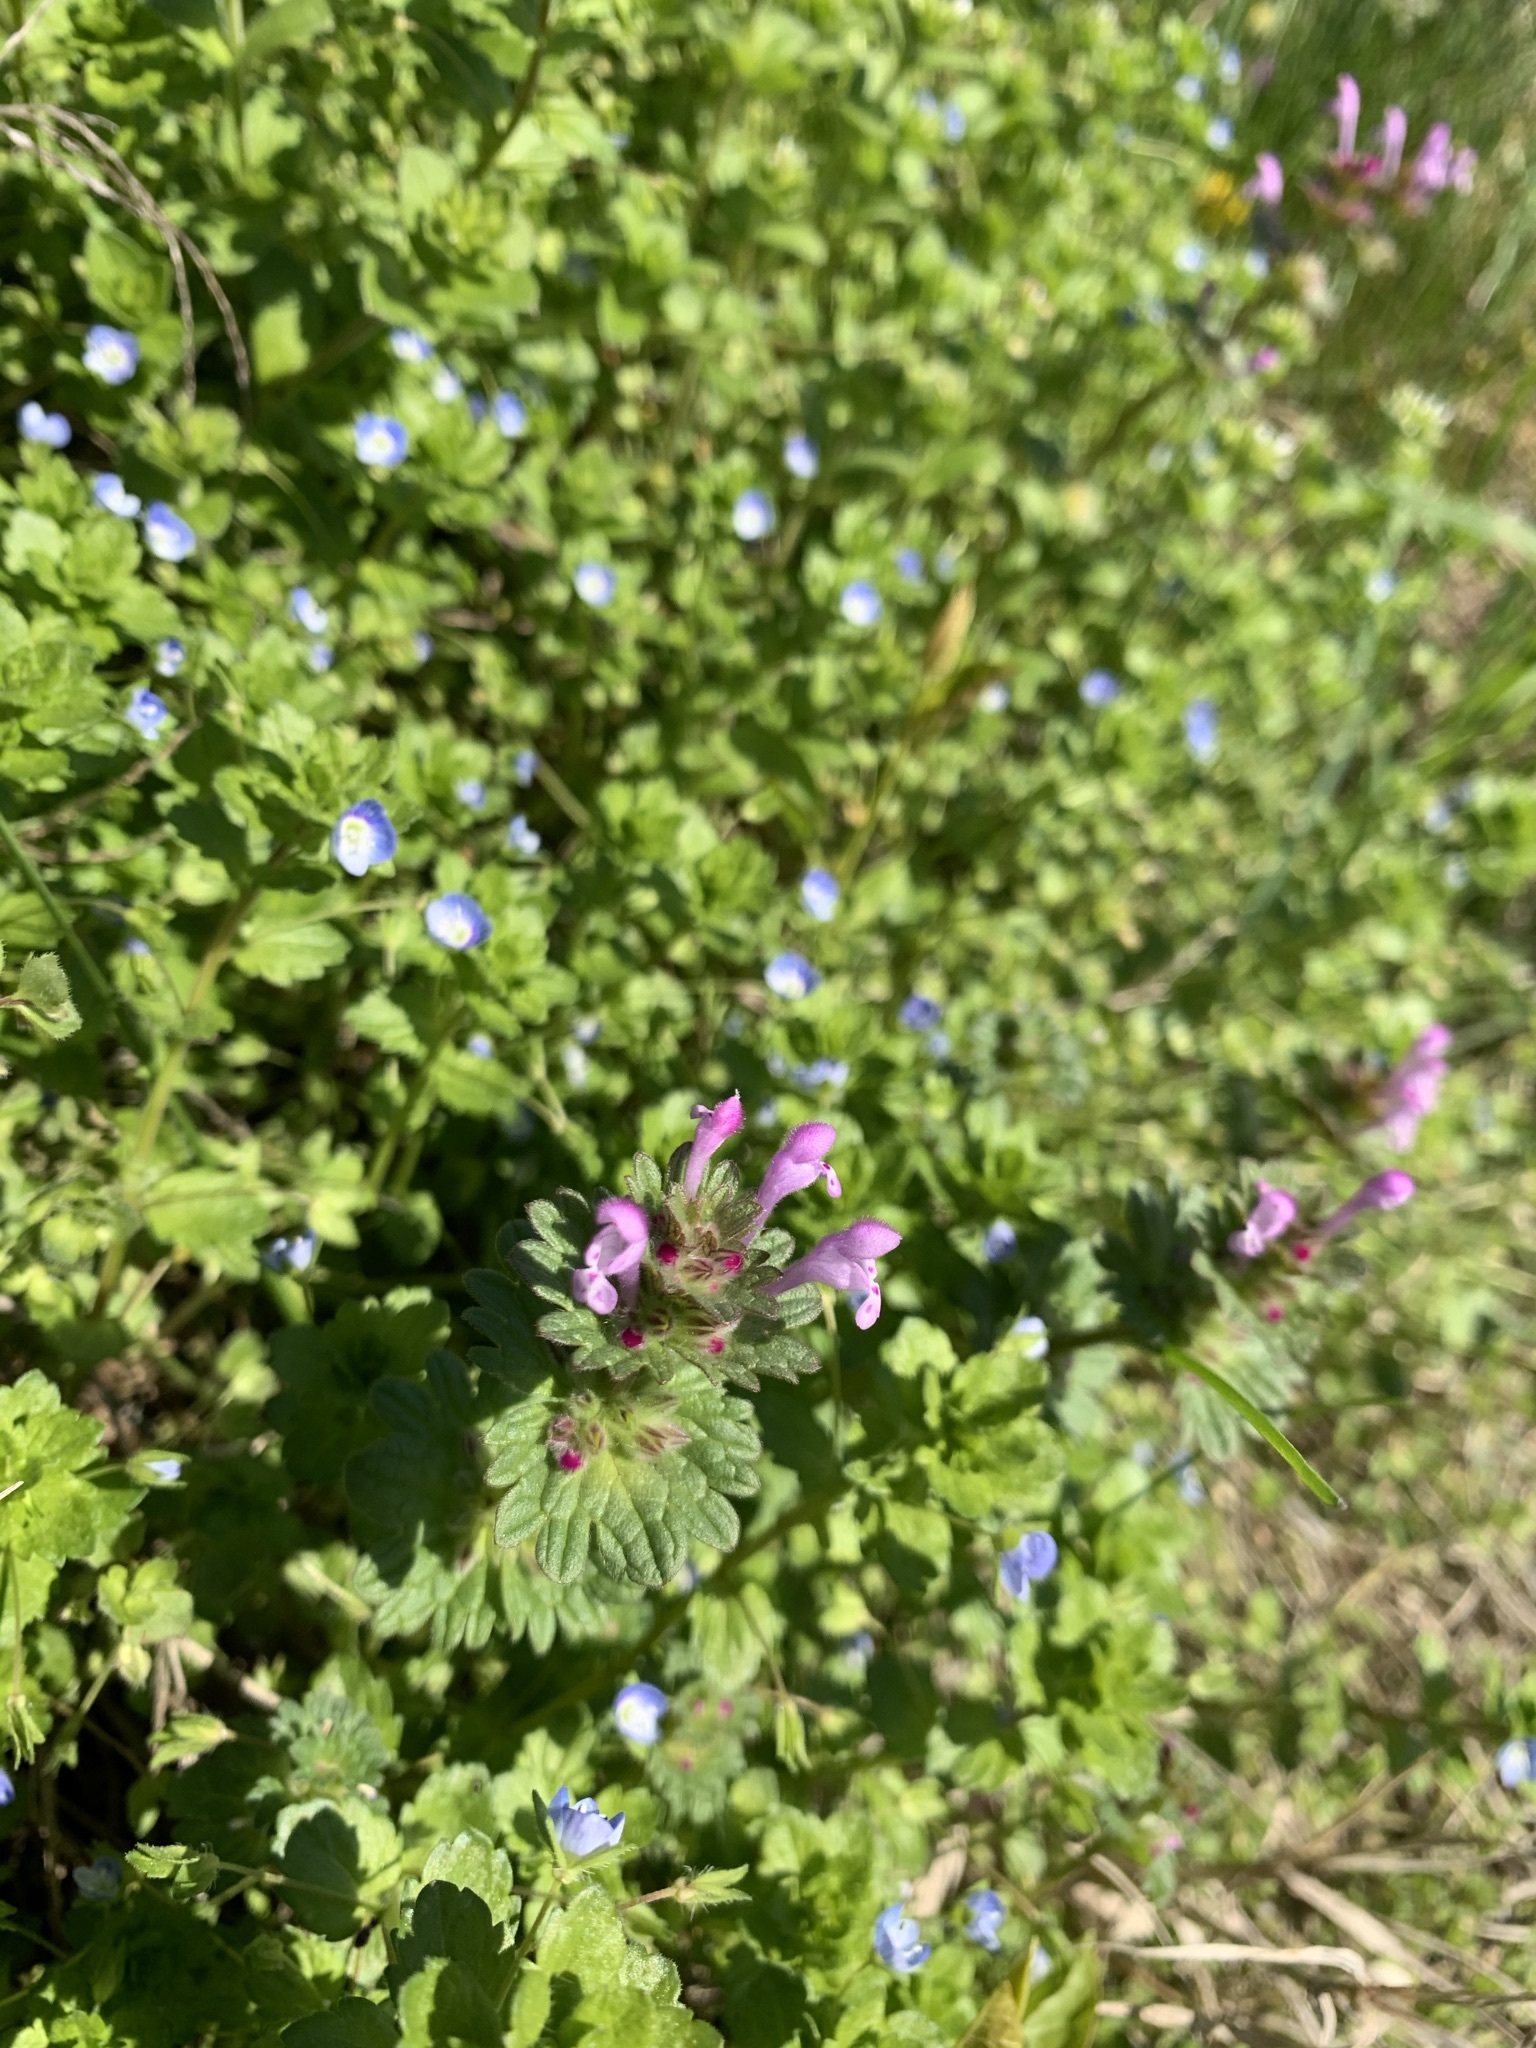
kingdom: Plantae
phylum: Tracheophyta
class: Magnoliopsida
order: Lamiales
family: Lamiaceae
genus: Lamium
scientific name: Lamium amplexicaule
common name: Henbit dead-nettle
